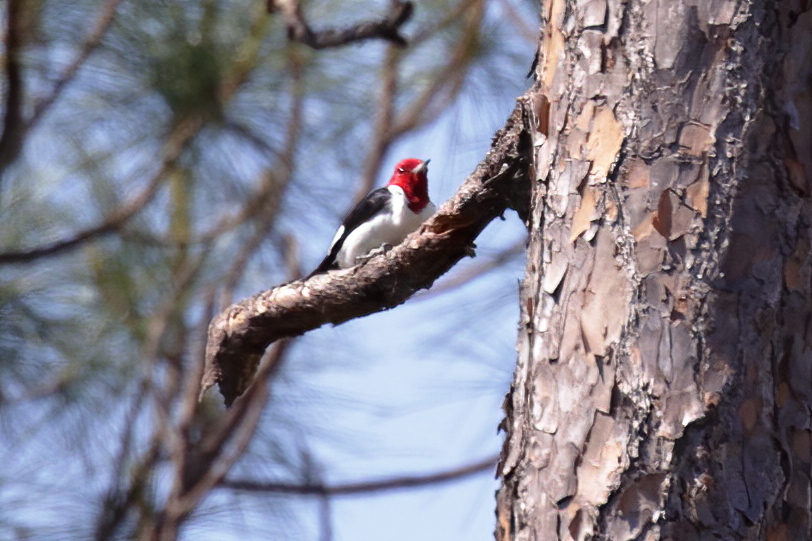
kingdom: Animalia
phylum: Chordata
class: Aves
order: Piciformes
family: Picidae
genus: Melanerpes
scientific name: Melanerpes erythrocephalus
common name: Red-headed woodpecker
